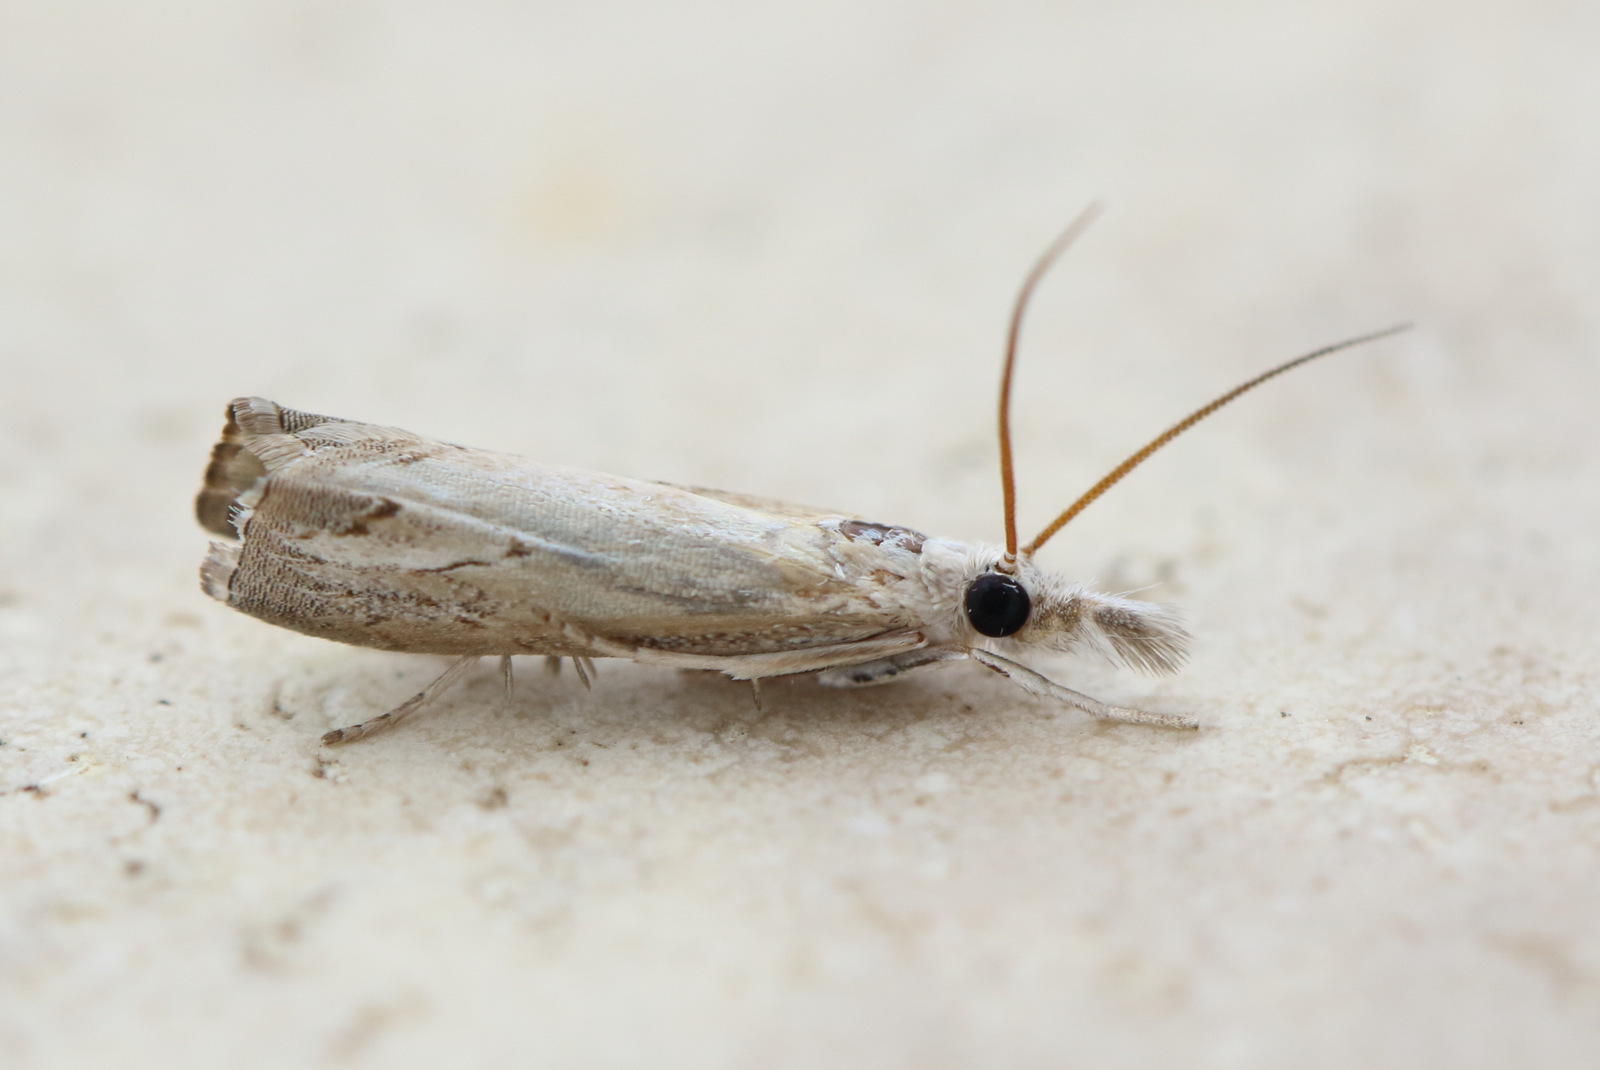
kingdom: Animalia
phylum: Arthropoda
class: Insecta
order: Lepidoptera
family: Crambidae
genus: Culladia
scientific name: Culladia cuneiferellus
